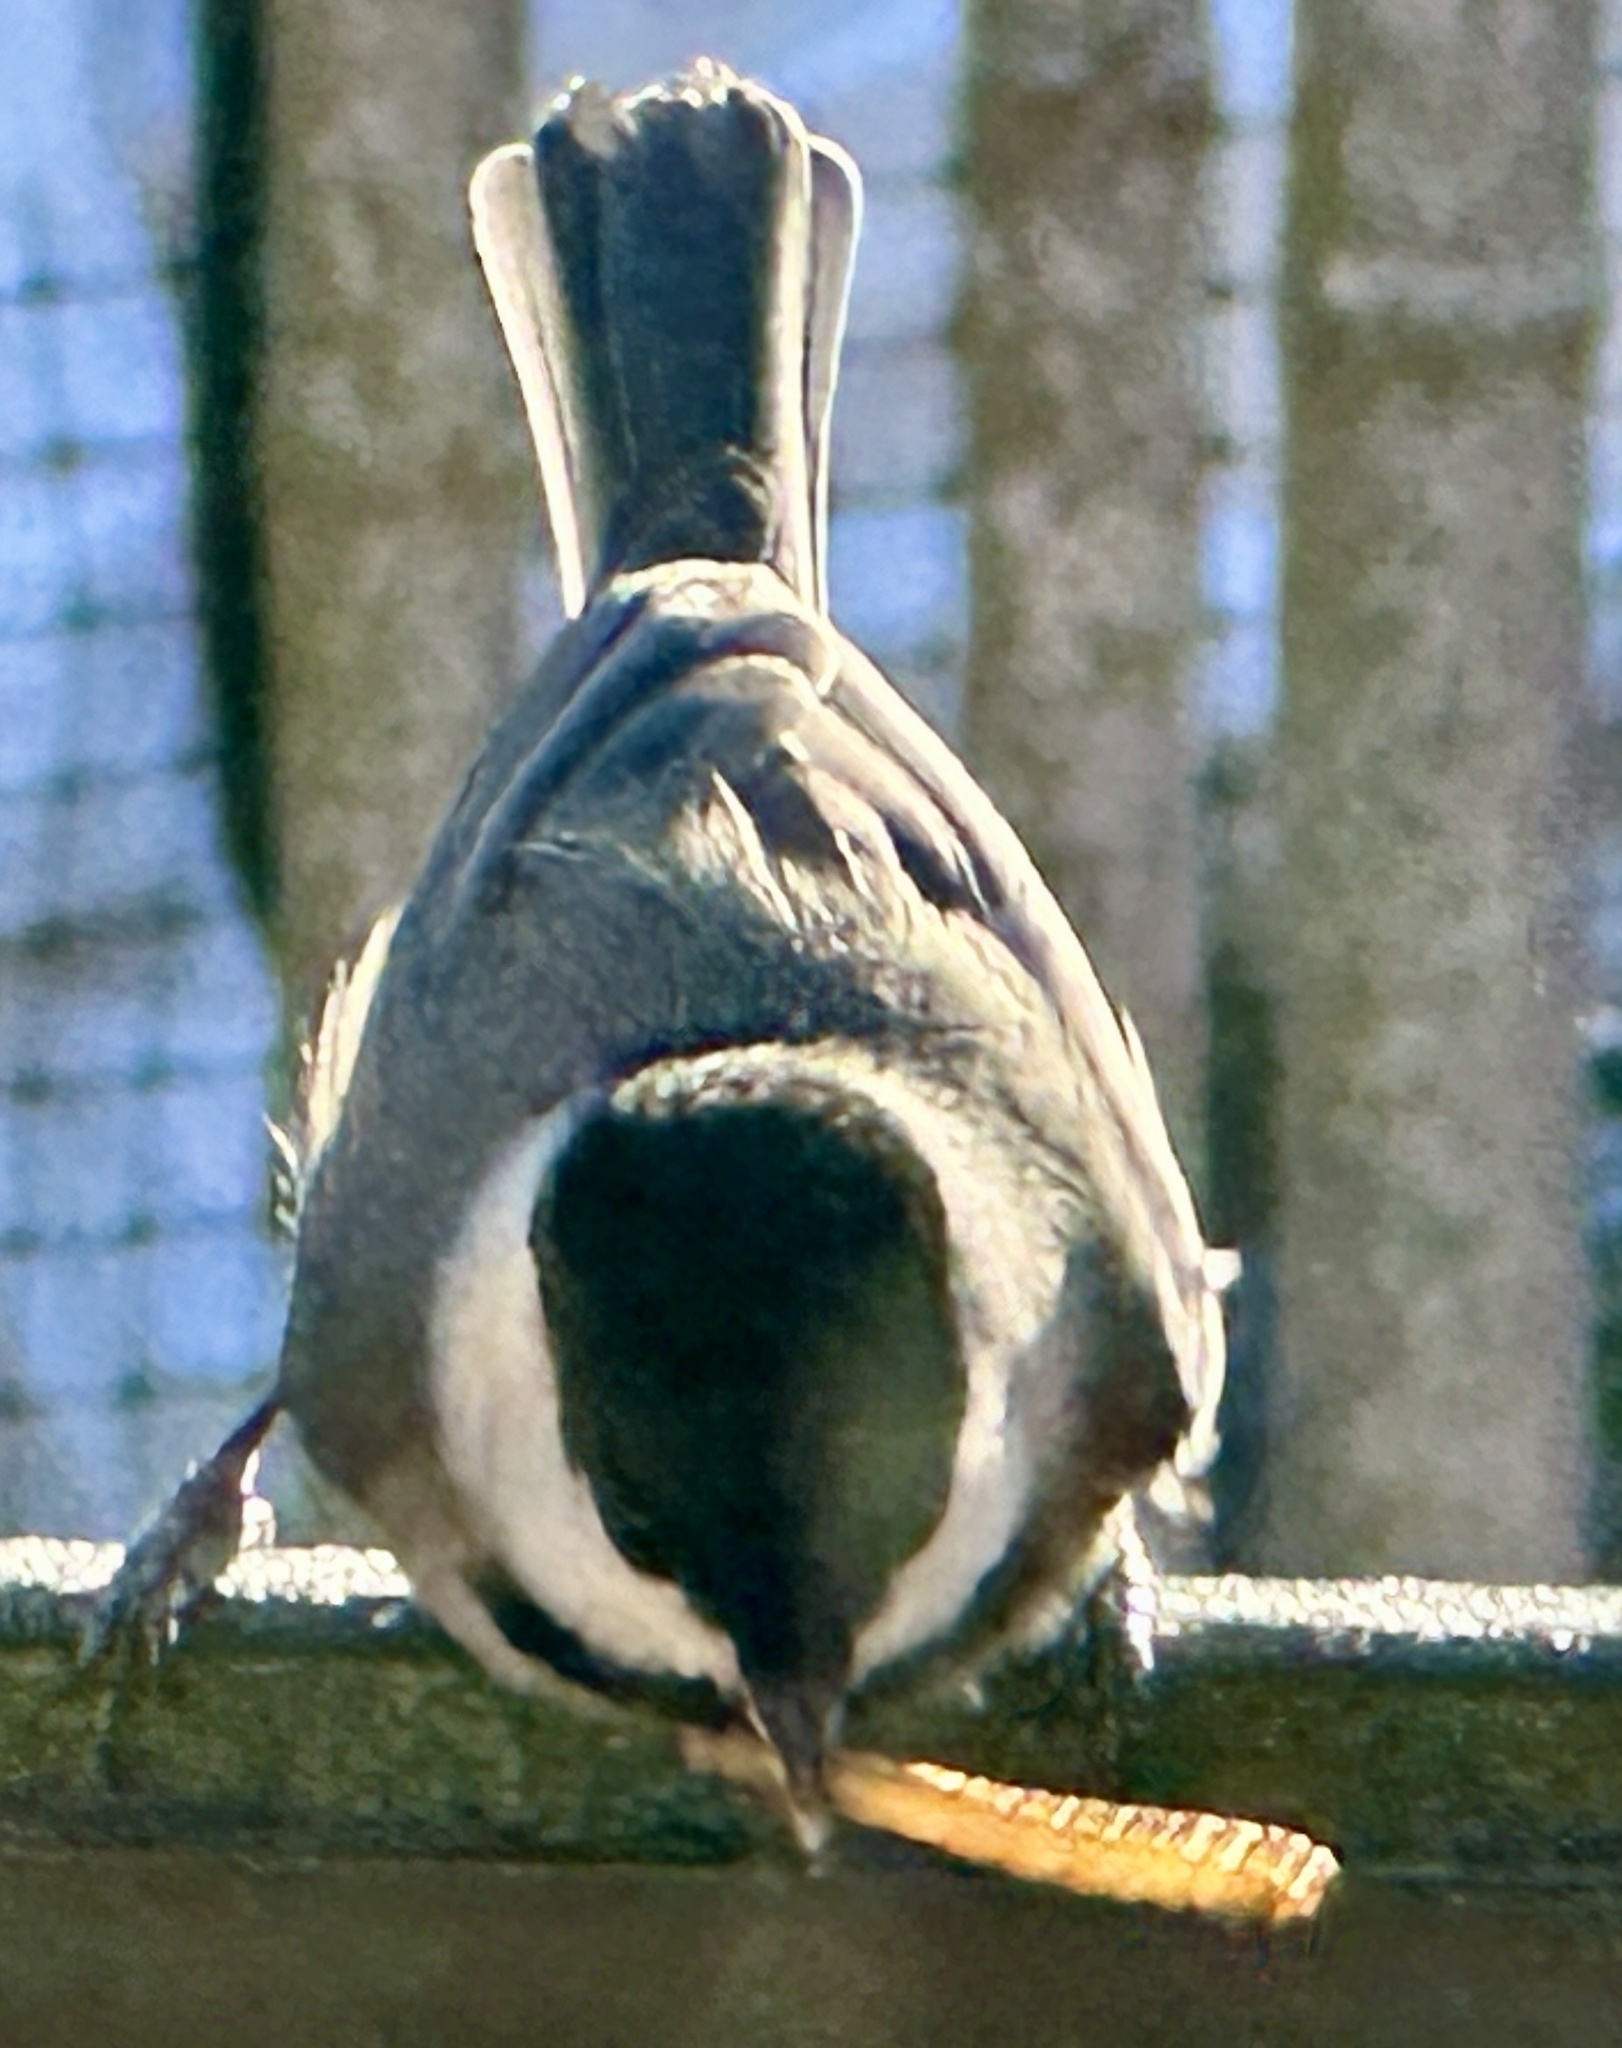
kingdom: Animalia
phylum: Chordata
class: Aves
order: Passeriformes
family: Paridae
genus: Poecile
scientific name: Poecile carolinensis
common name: Carolina chickadee
